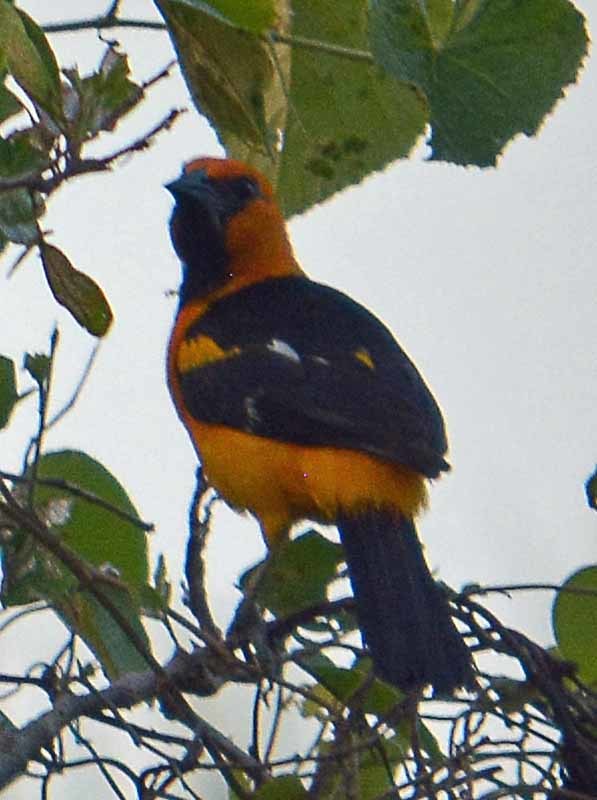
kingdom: Animalia
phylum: Chordata
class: Aves
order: Passeriformes
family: Icteridae
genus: Icterus
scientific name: Icterus gularis
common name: Altamira oriole
